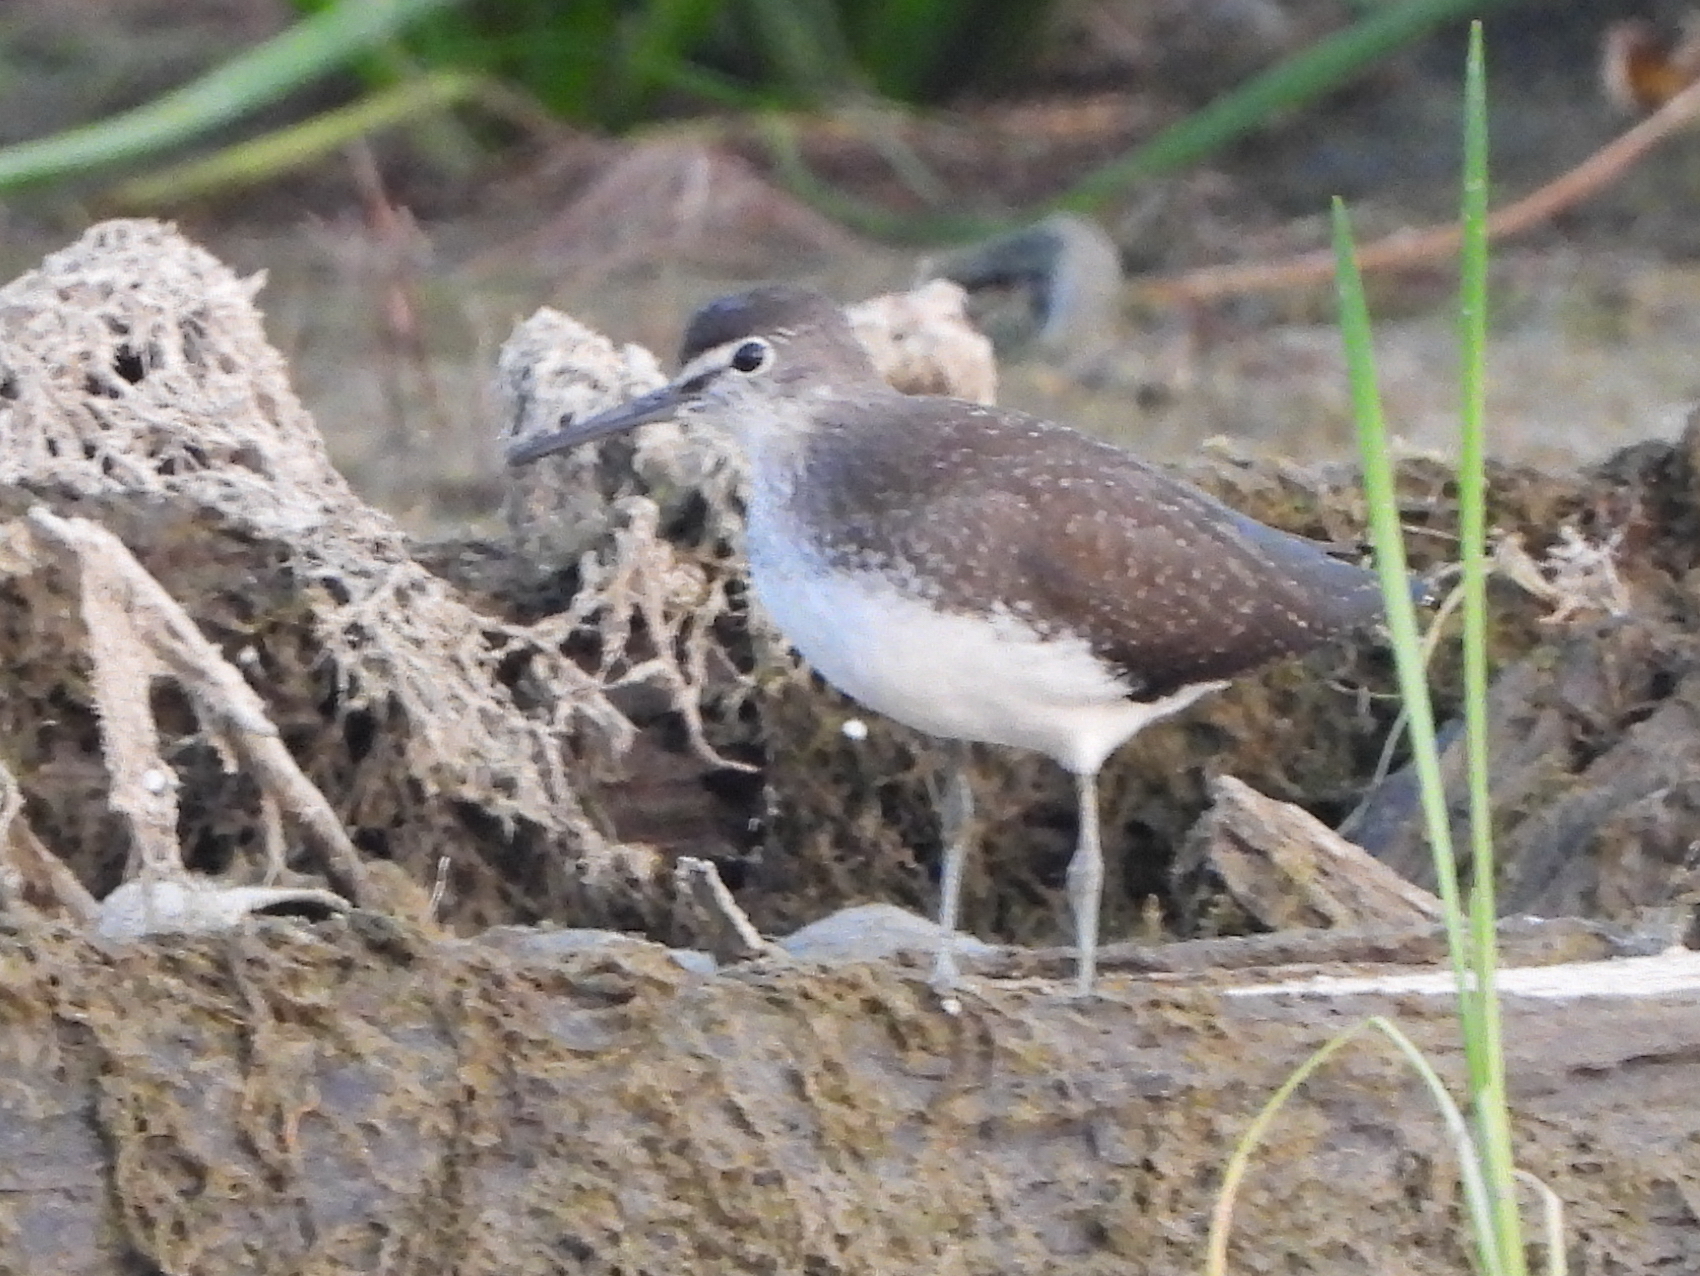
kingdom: Animalia
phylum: Chordata
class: Aves
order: Charadriiformes
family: Scolopacidae
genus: Tringa
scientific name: Tringa ochropus
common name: Green sandpiper
